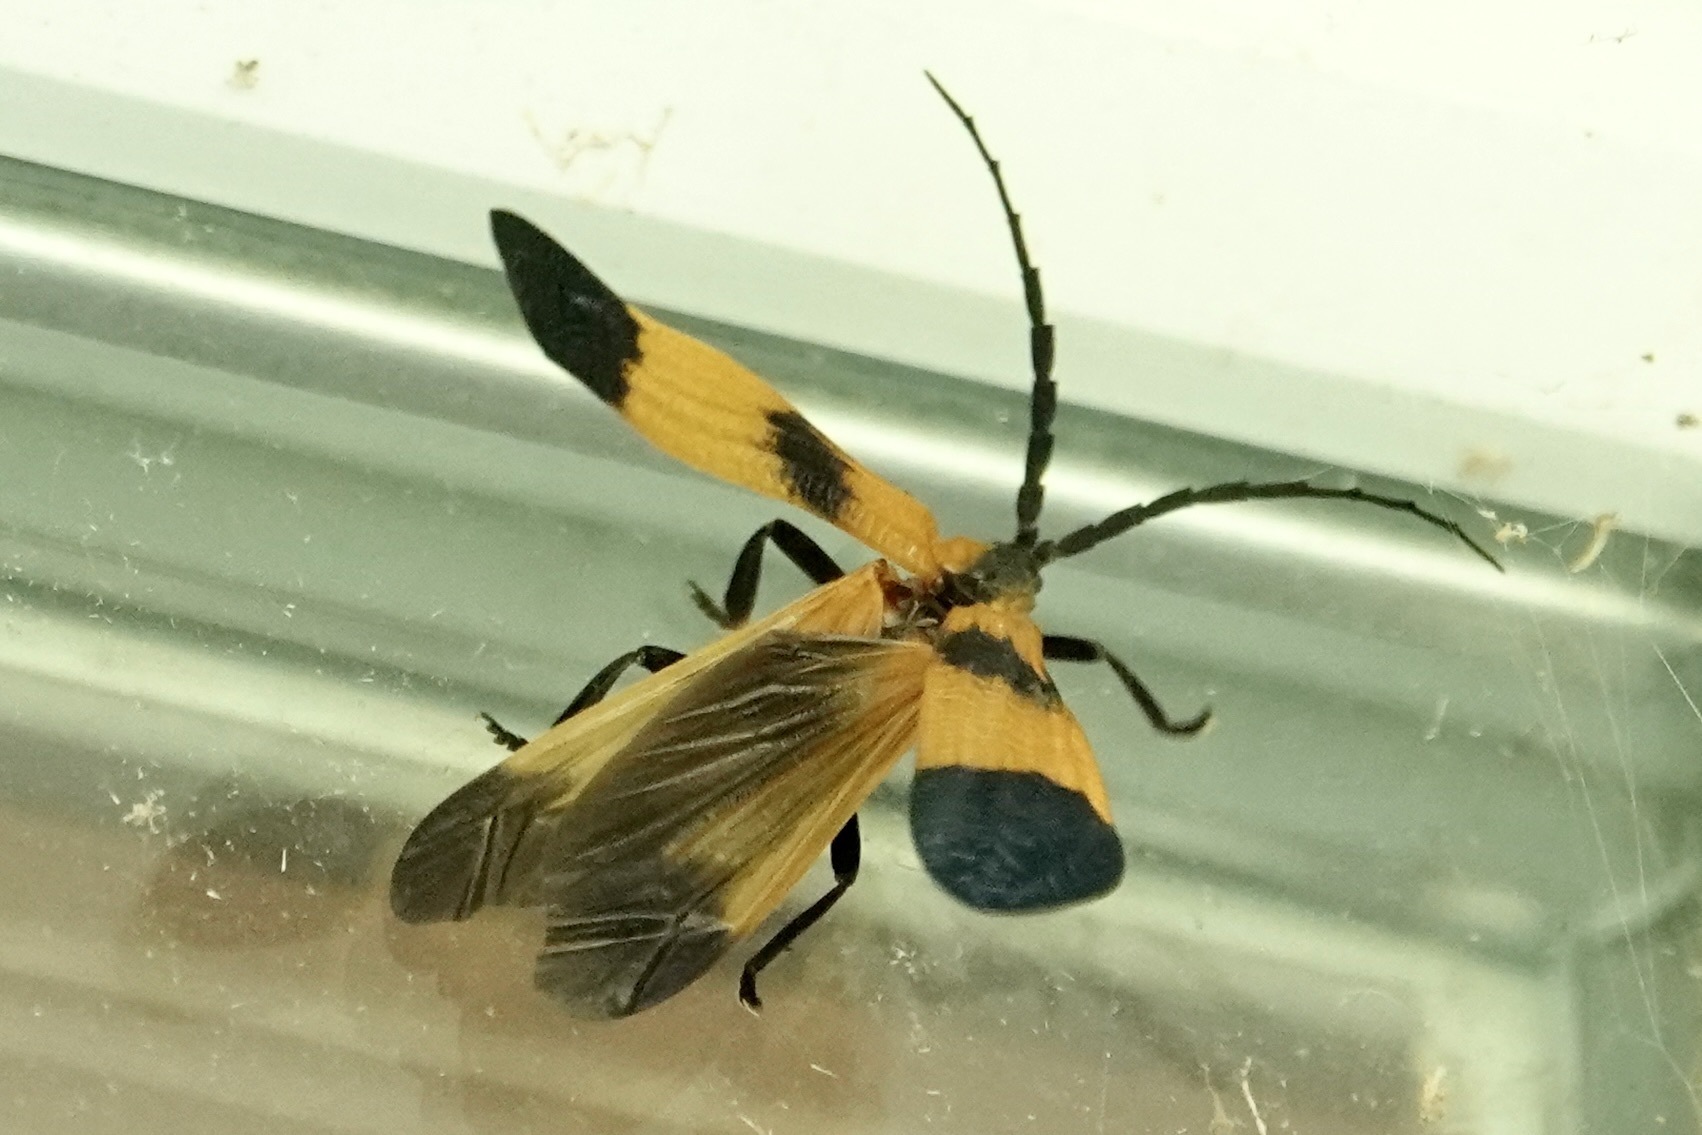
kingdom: Animalia
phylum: Arthropoda
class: Insecta
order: Coleoptera
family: Lycidae
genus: Calopteron
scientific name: Calopteron terminale
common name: End band net-winged beetle
